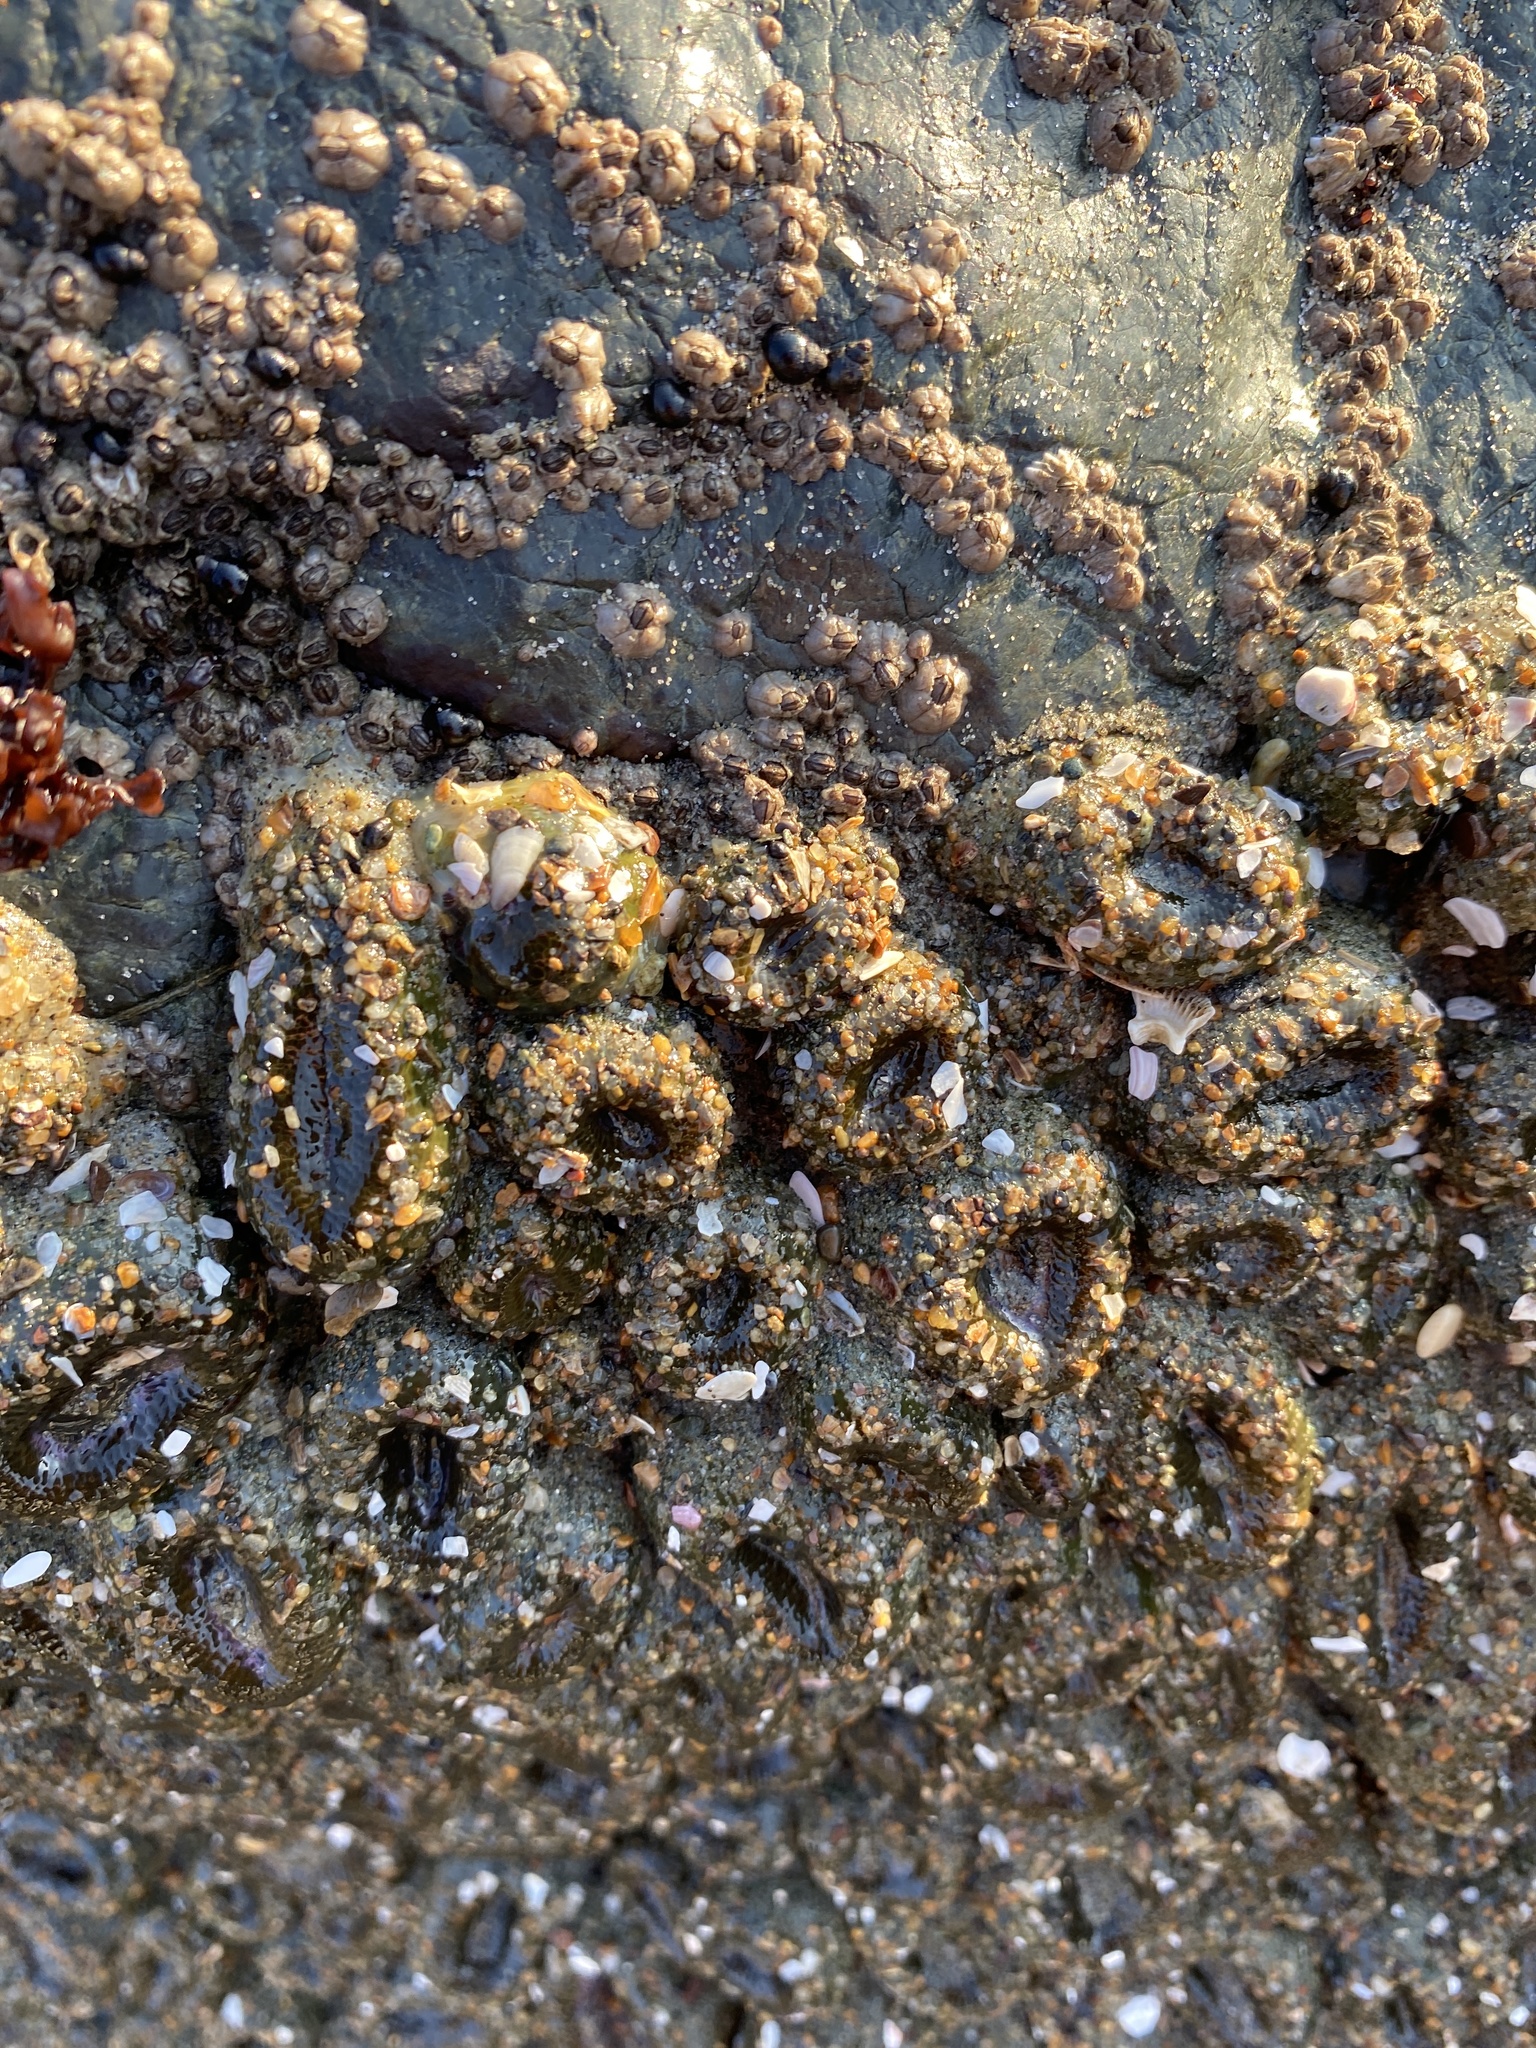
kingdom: Animalia
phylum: Cnidaria
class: Anthozoa
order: Actiniaria
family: Actiniidae
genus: Anthopleura
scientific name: Anthopleura elegantissima
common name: Clonal anemone
